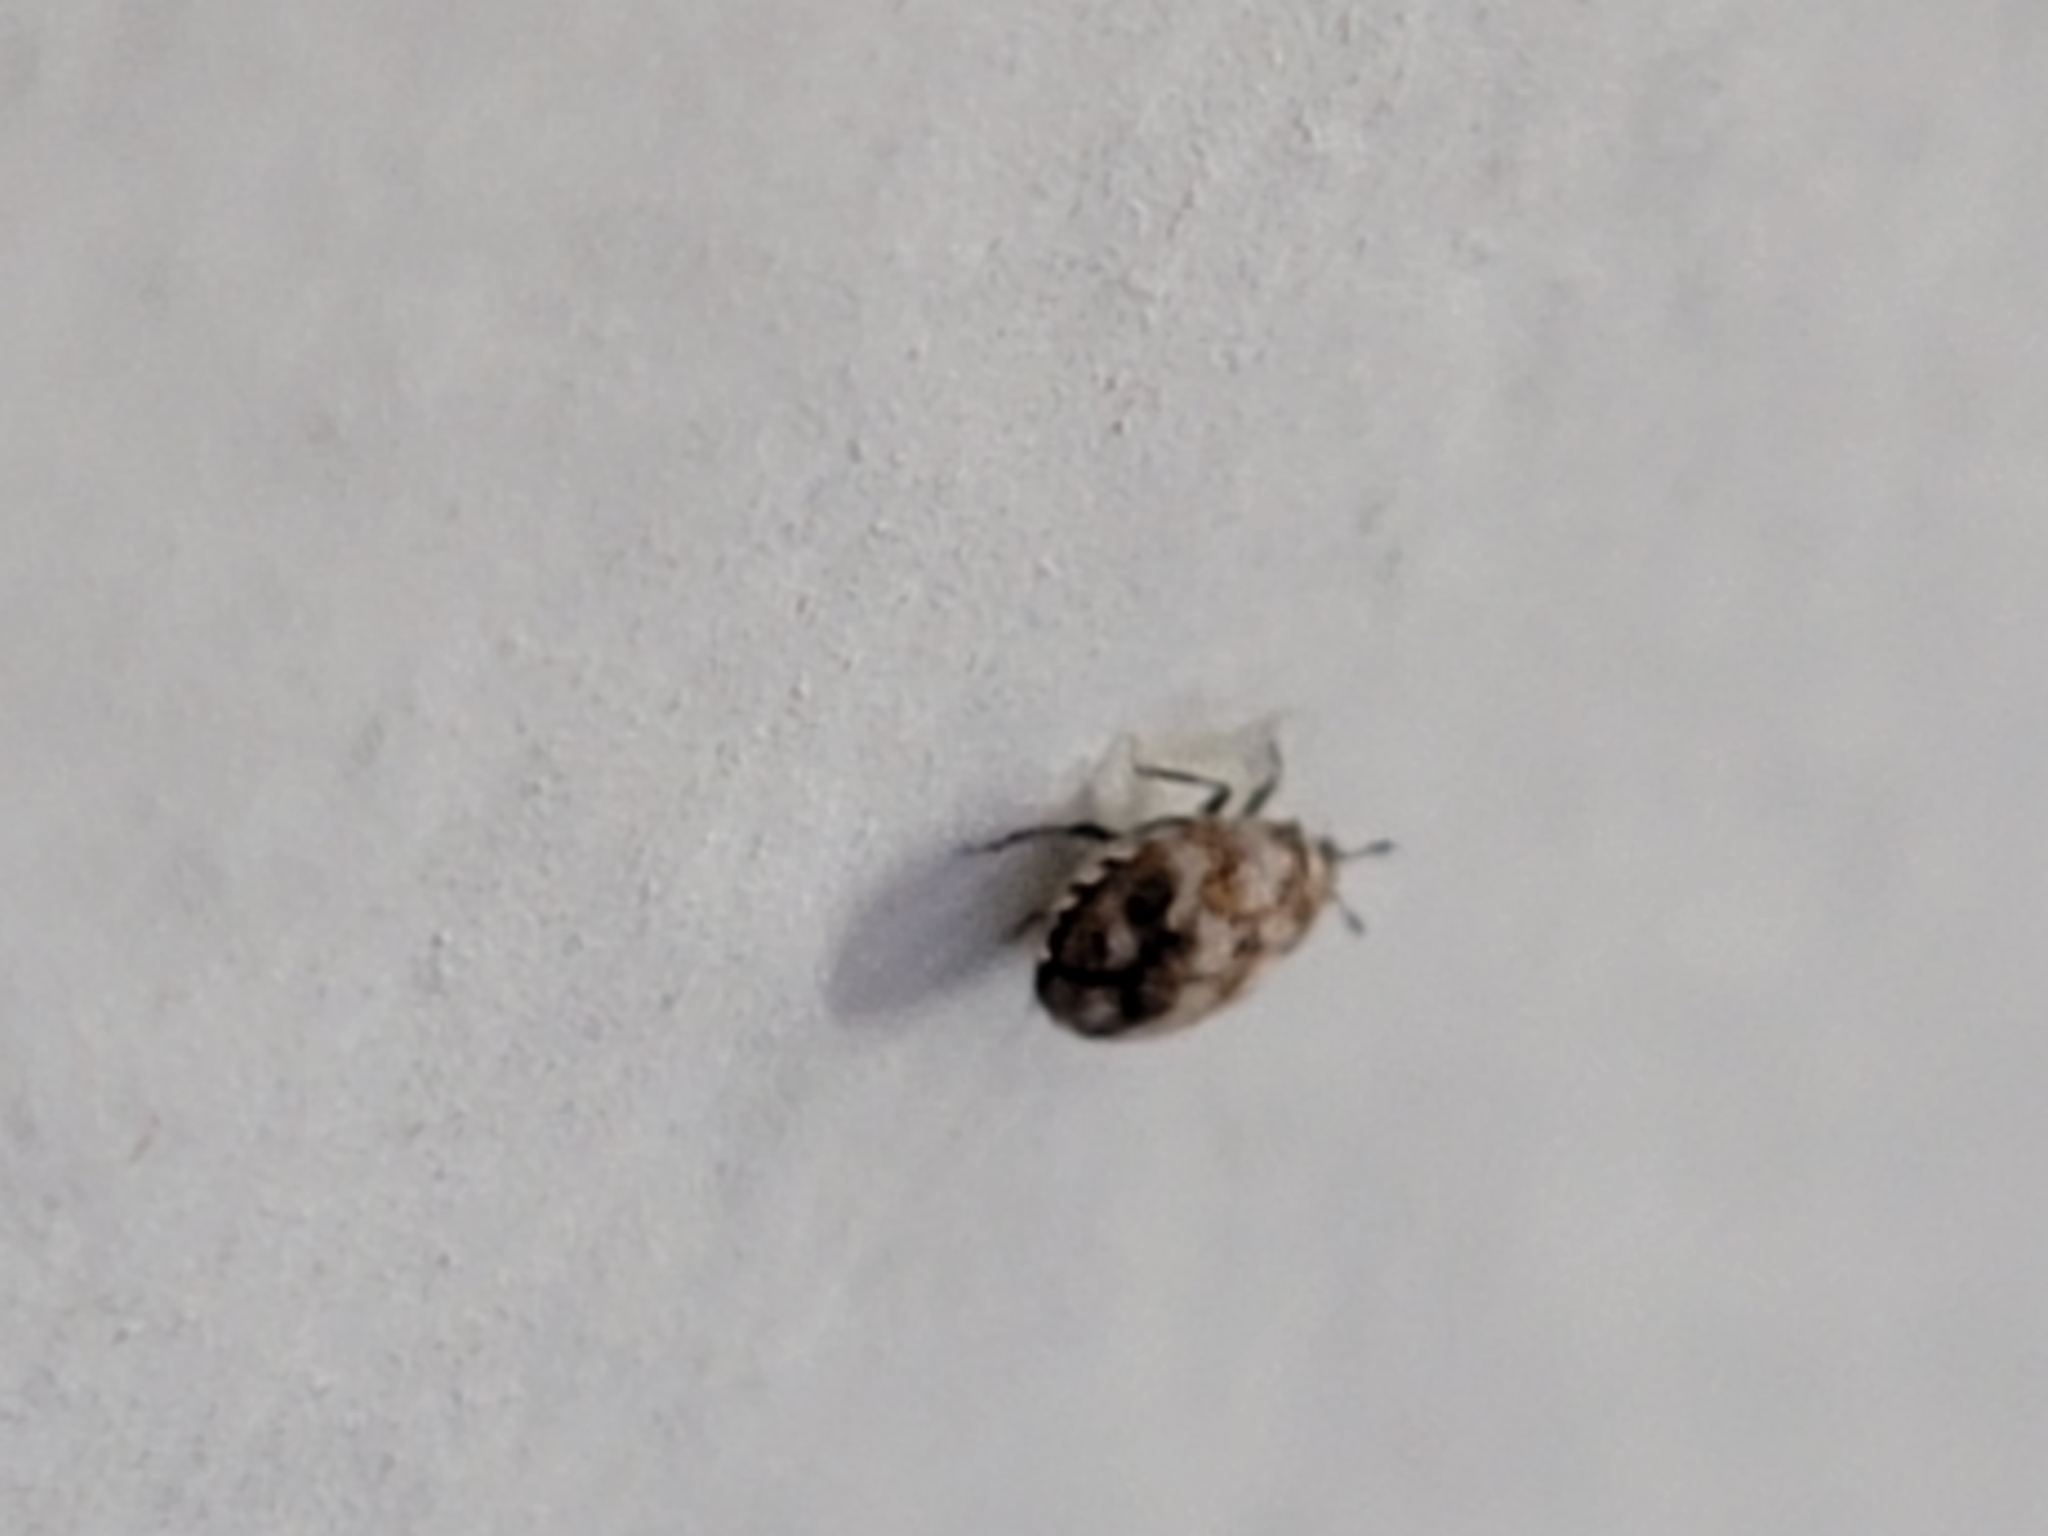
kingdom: Animalia
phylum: Arthropoda
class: Insecta
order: Coleoptera
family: Dermestidae
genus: Anthrenus
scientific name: Anthrenus verbasci
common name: Varied carpet beetle
